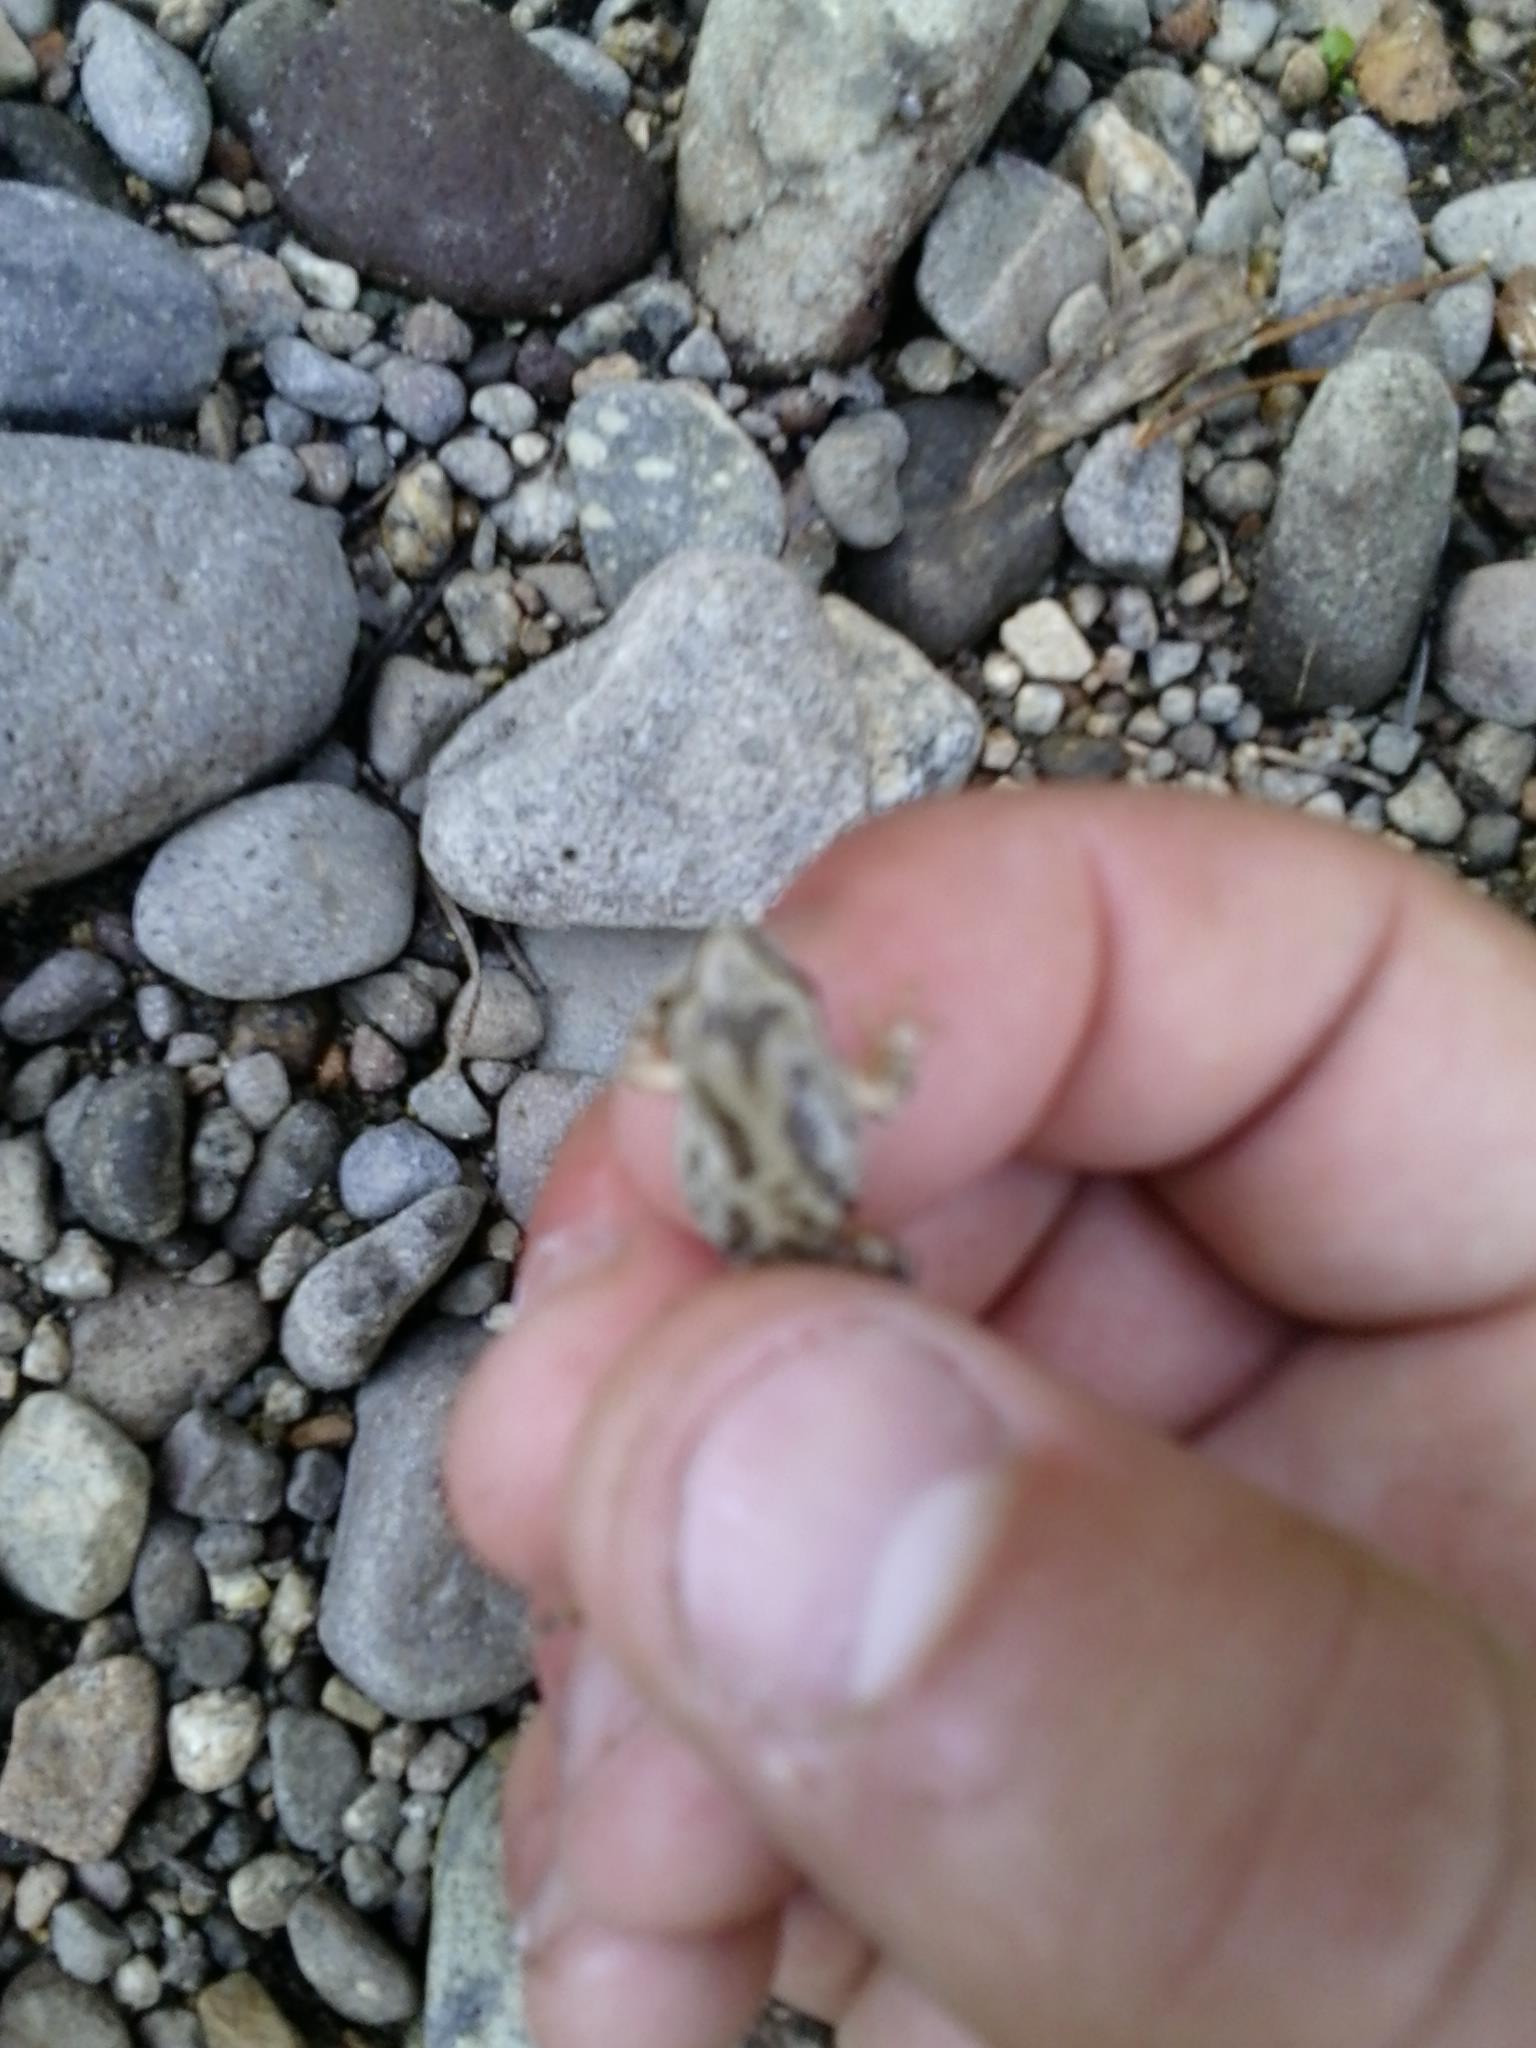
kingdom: Animalia
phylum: Chordata
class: Amphibia
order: Anura
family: Hylidae
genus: Pseudacris
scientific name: Pseudacris regilla
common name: Pacific chorus frog
